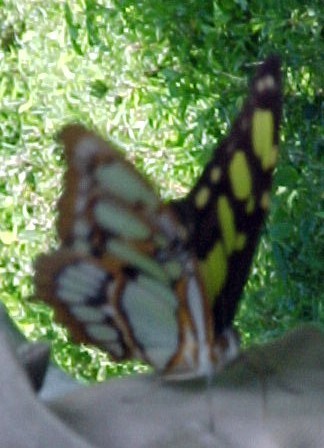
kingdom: Animalia
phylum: Arthropoda
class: Insecta
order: Lepidoptera
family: Nymphalidae
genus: Siproeta
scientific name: Siproeta stelenes
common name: Malachite
